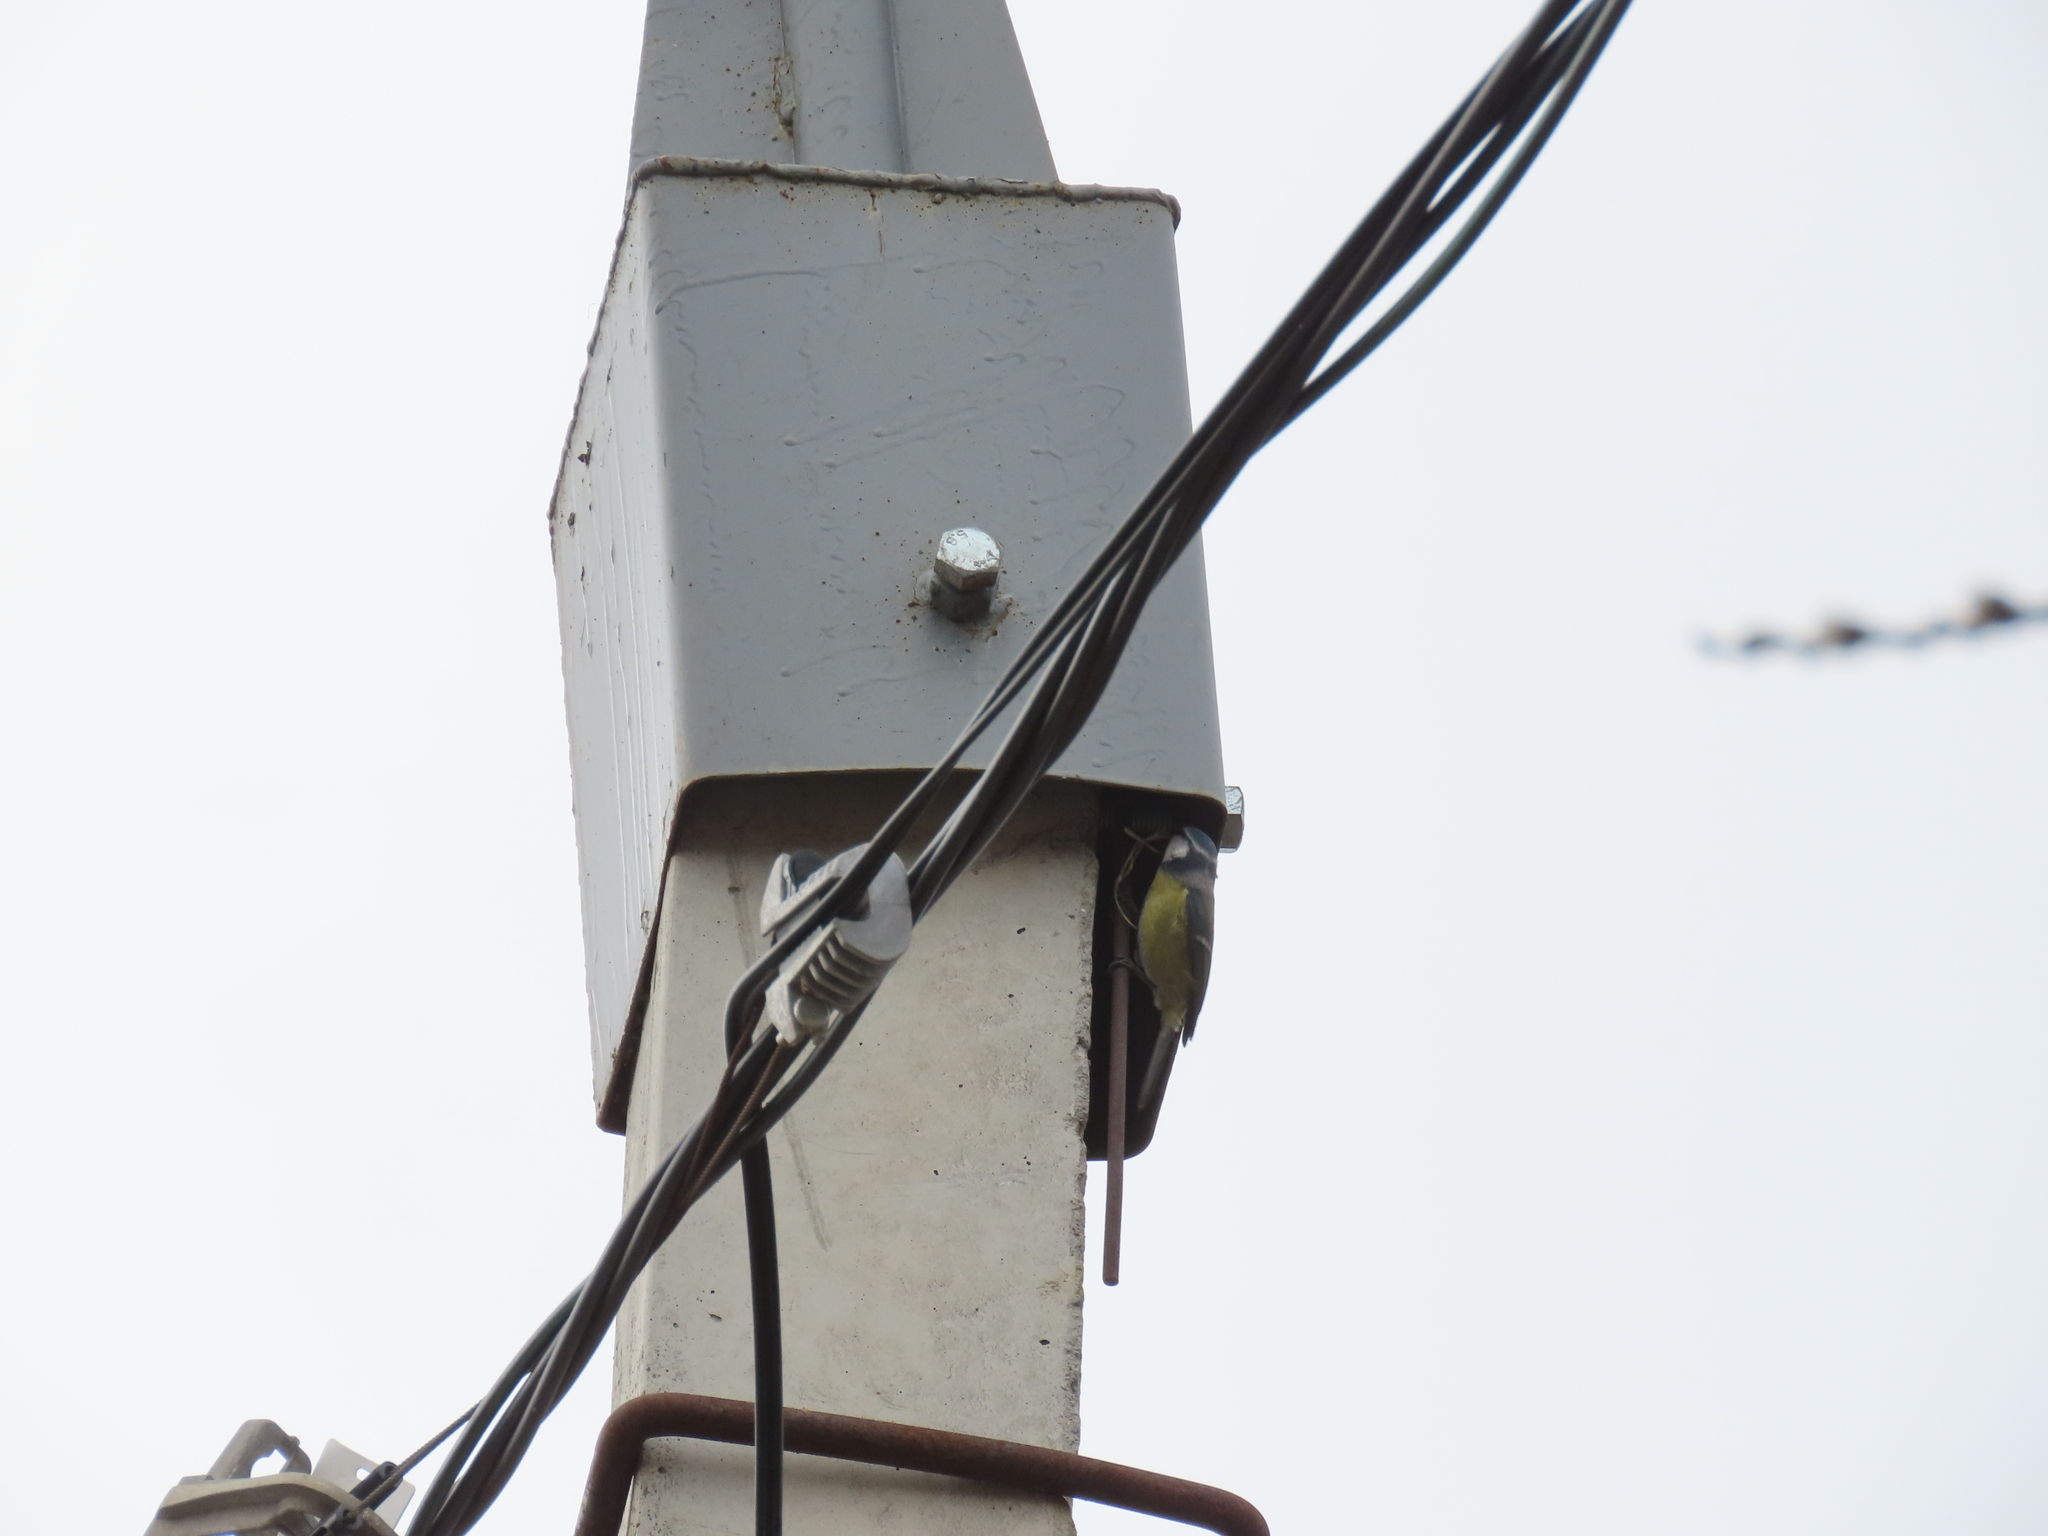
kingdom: Animalia
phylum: Chordata
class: Aves
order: Passeriformes
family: Paridae
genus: Cyanistes
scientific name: Cyanistes caeruleus
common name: Eurasian blue tit
